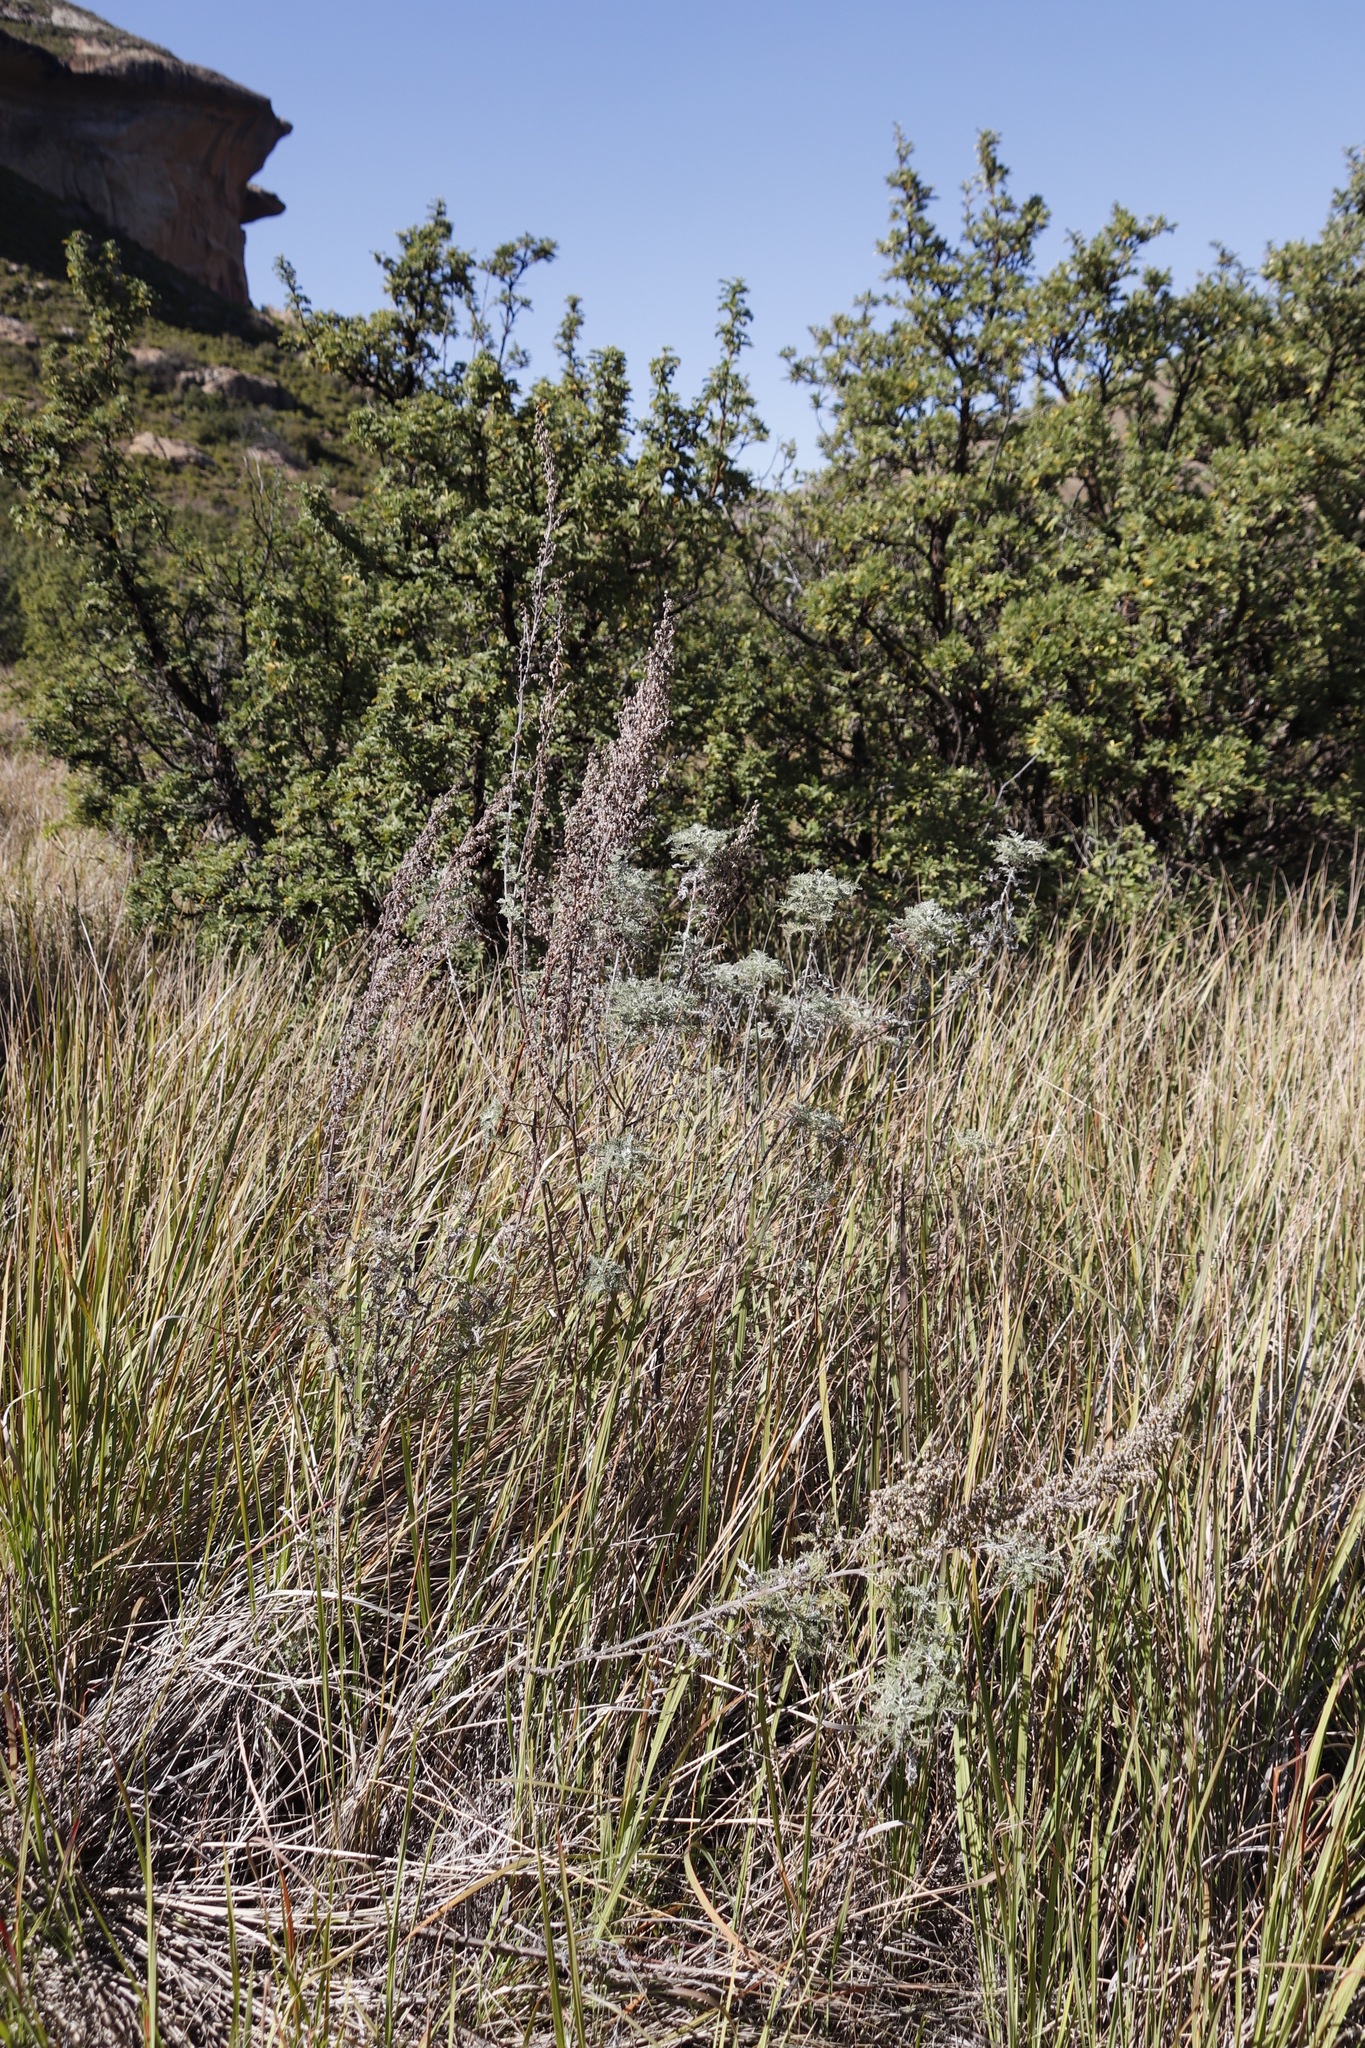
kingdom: Plantae
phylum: Tracheophyta
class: Magnoliopsida
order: Asterales
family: Asteraceae
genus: Artemisia
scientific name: Artemisia afra
